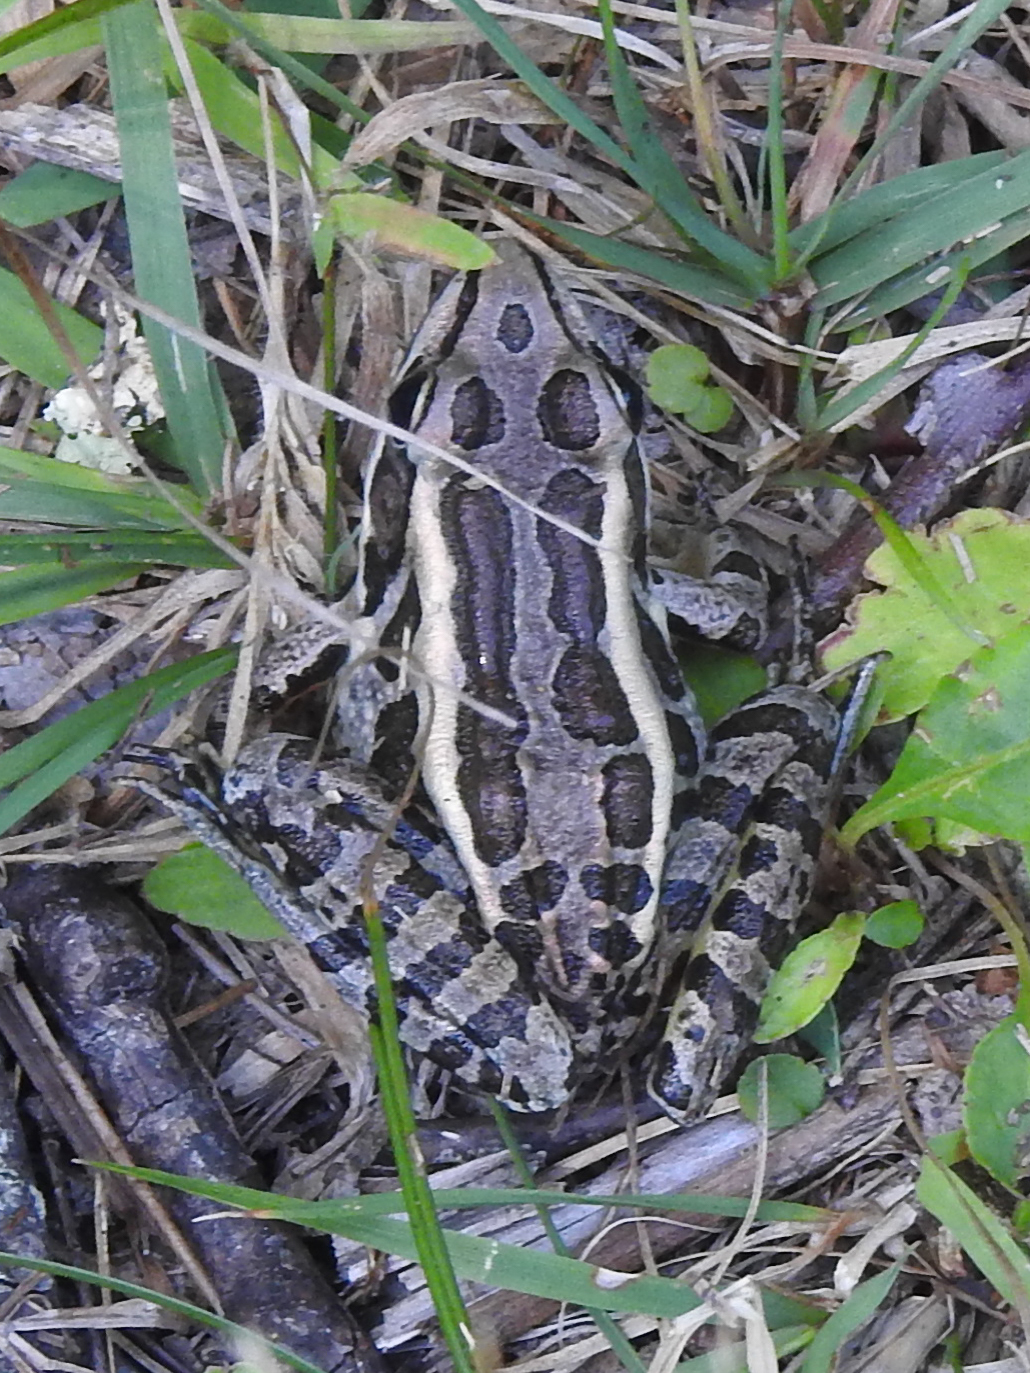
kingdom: Animalia
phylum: Chordata
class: Amphibia
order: Anura
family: Ranidae
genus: Lithobates
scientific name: Lithobates palustris
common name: Pickerel frog
